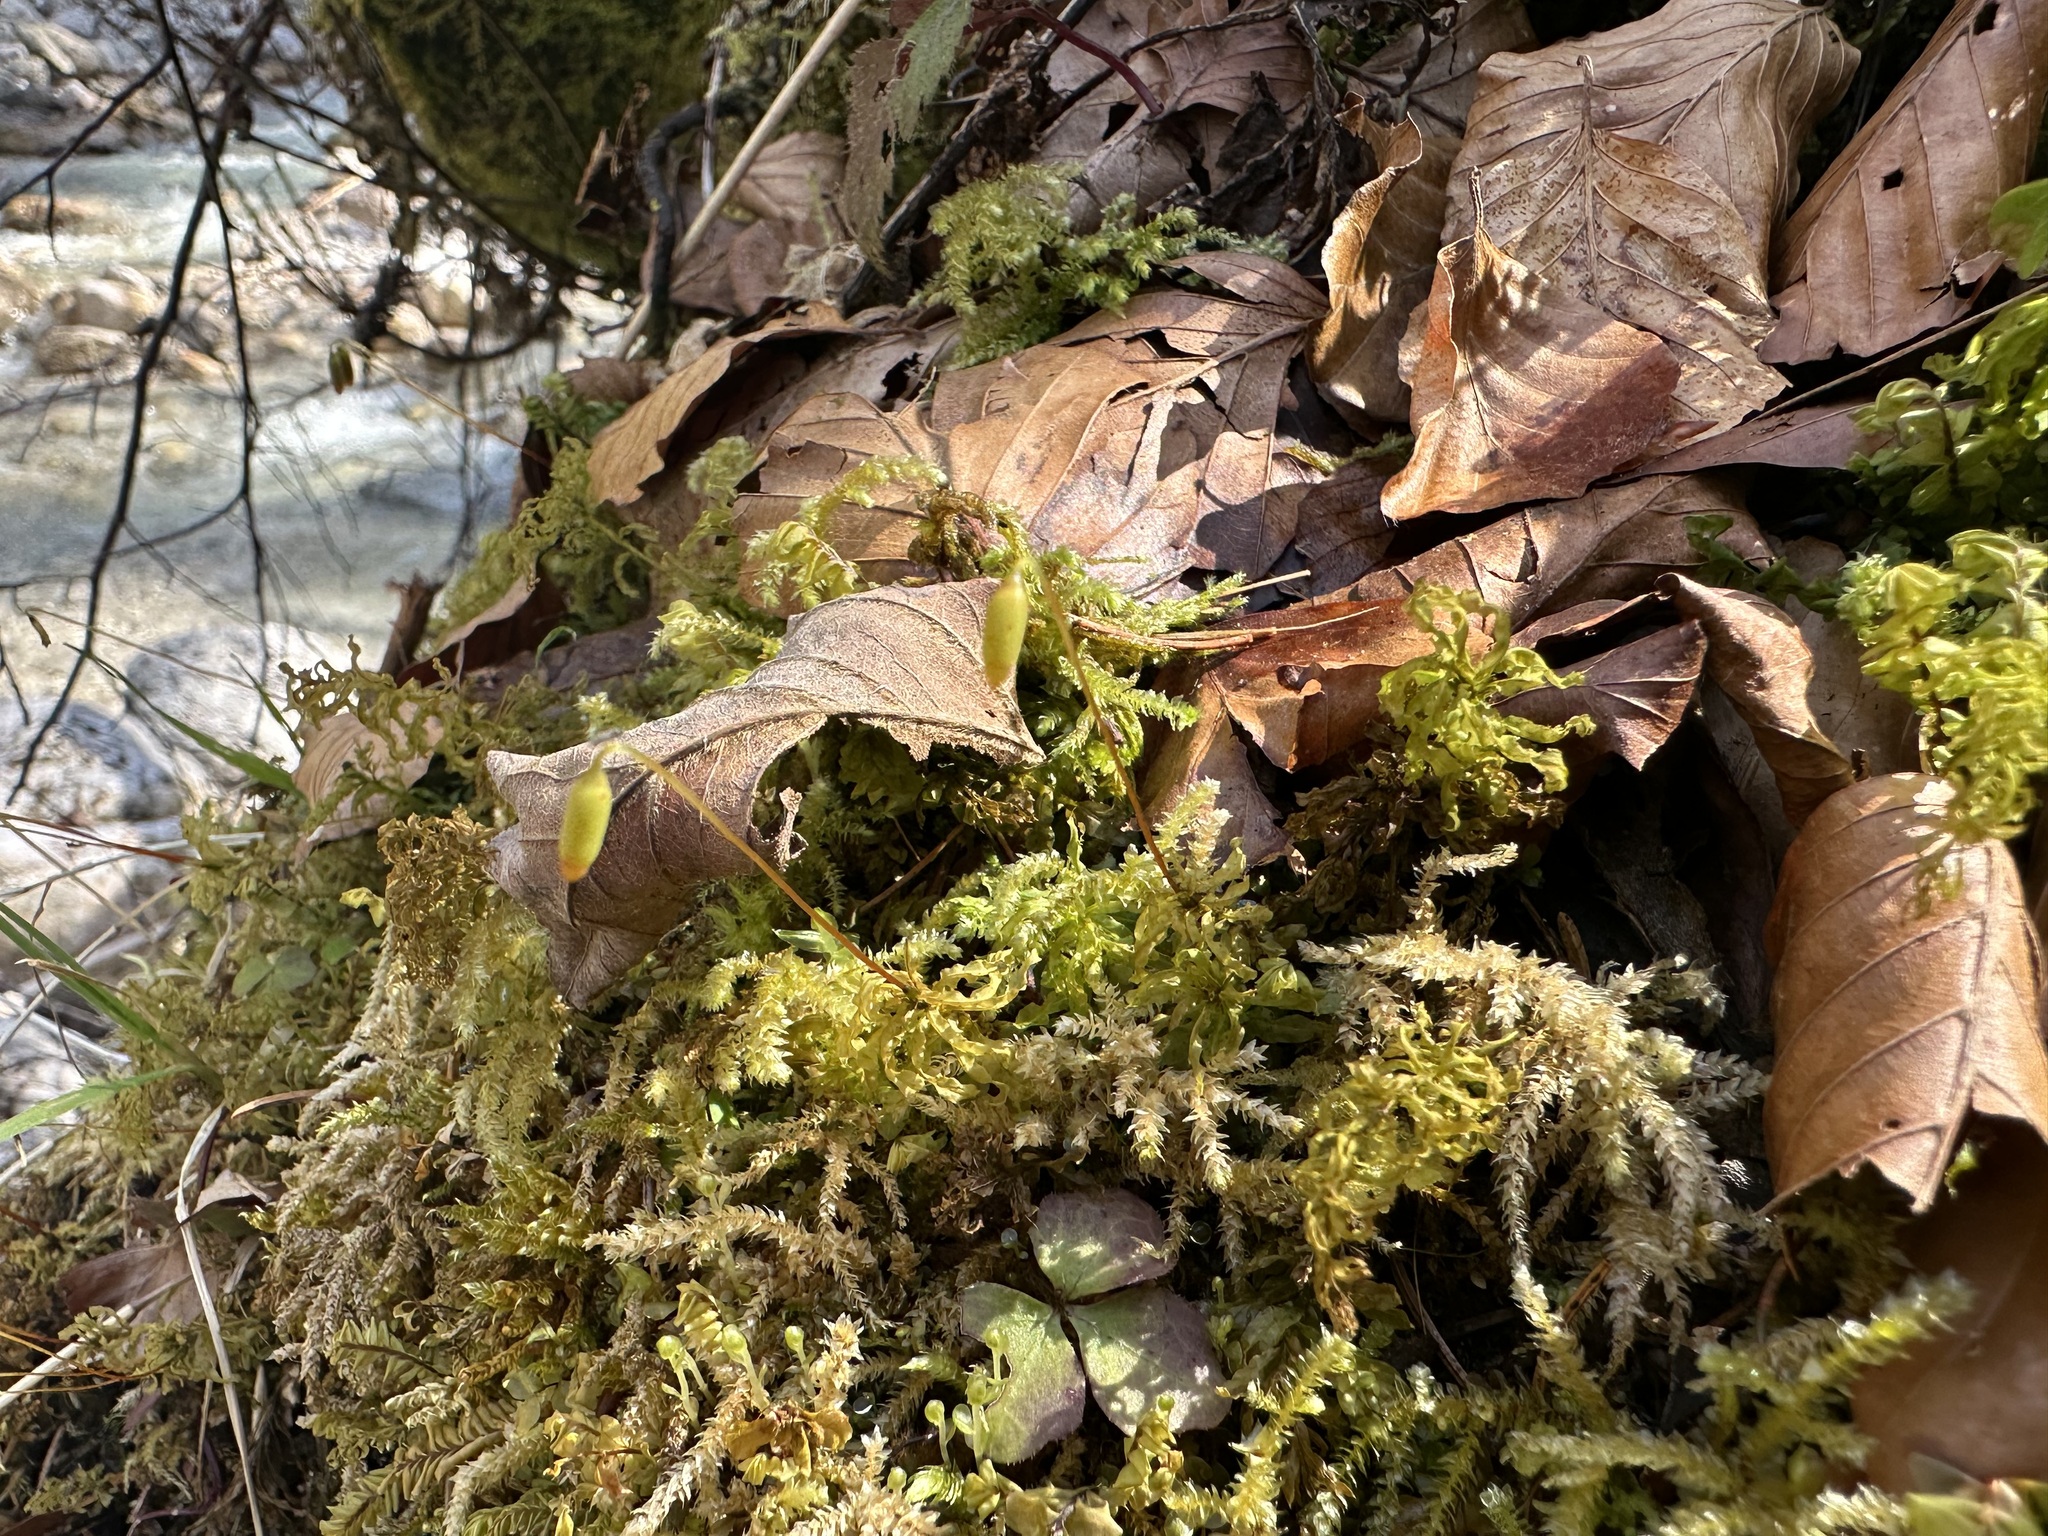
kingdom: Plantae
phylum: Bryophyta
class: Bryopsida
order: Bryales
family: Mniaceae
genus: Plagiomnium
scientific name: Plagiomnium undulatum
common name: Hart's-tongue thyme-moss
